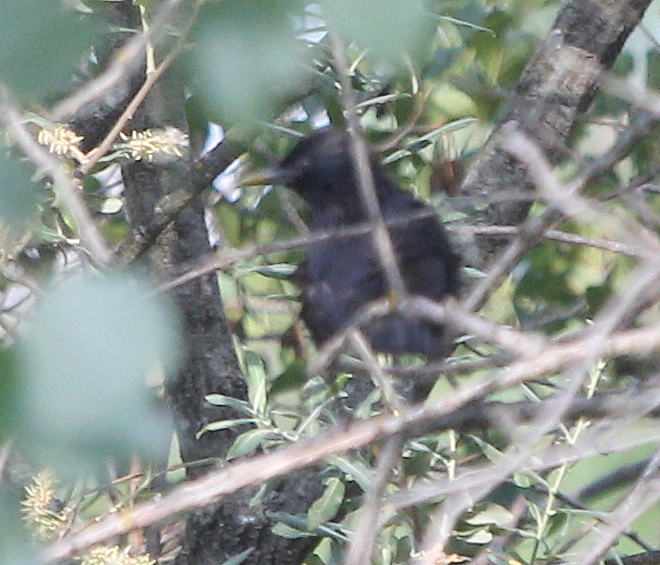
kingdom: Animalia
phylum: Chordata
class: Aves
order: Passeriformes
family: Sturnidae
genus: Sturnus
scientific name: Sturnus unicolor
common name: Spotless starling
